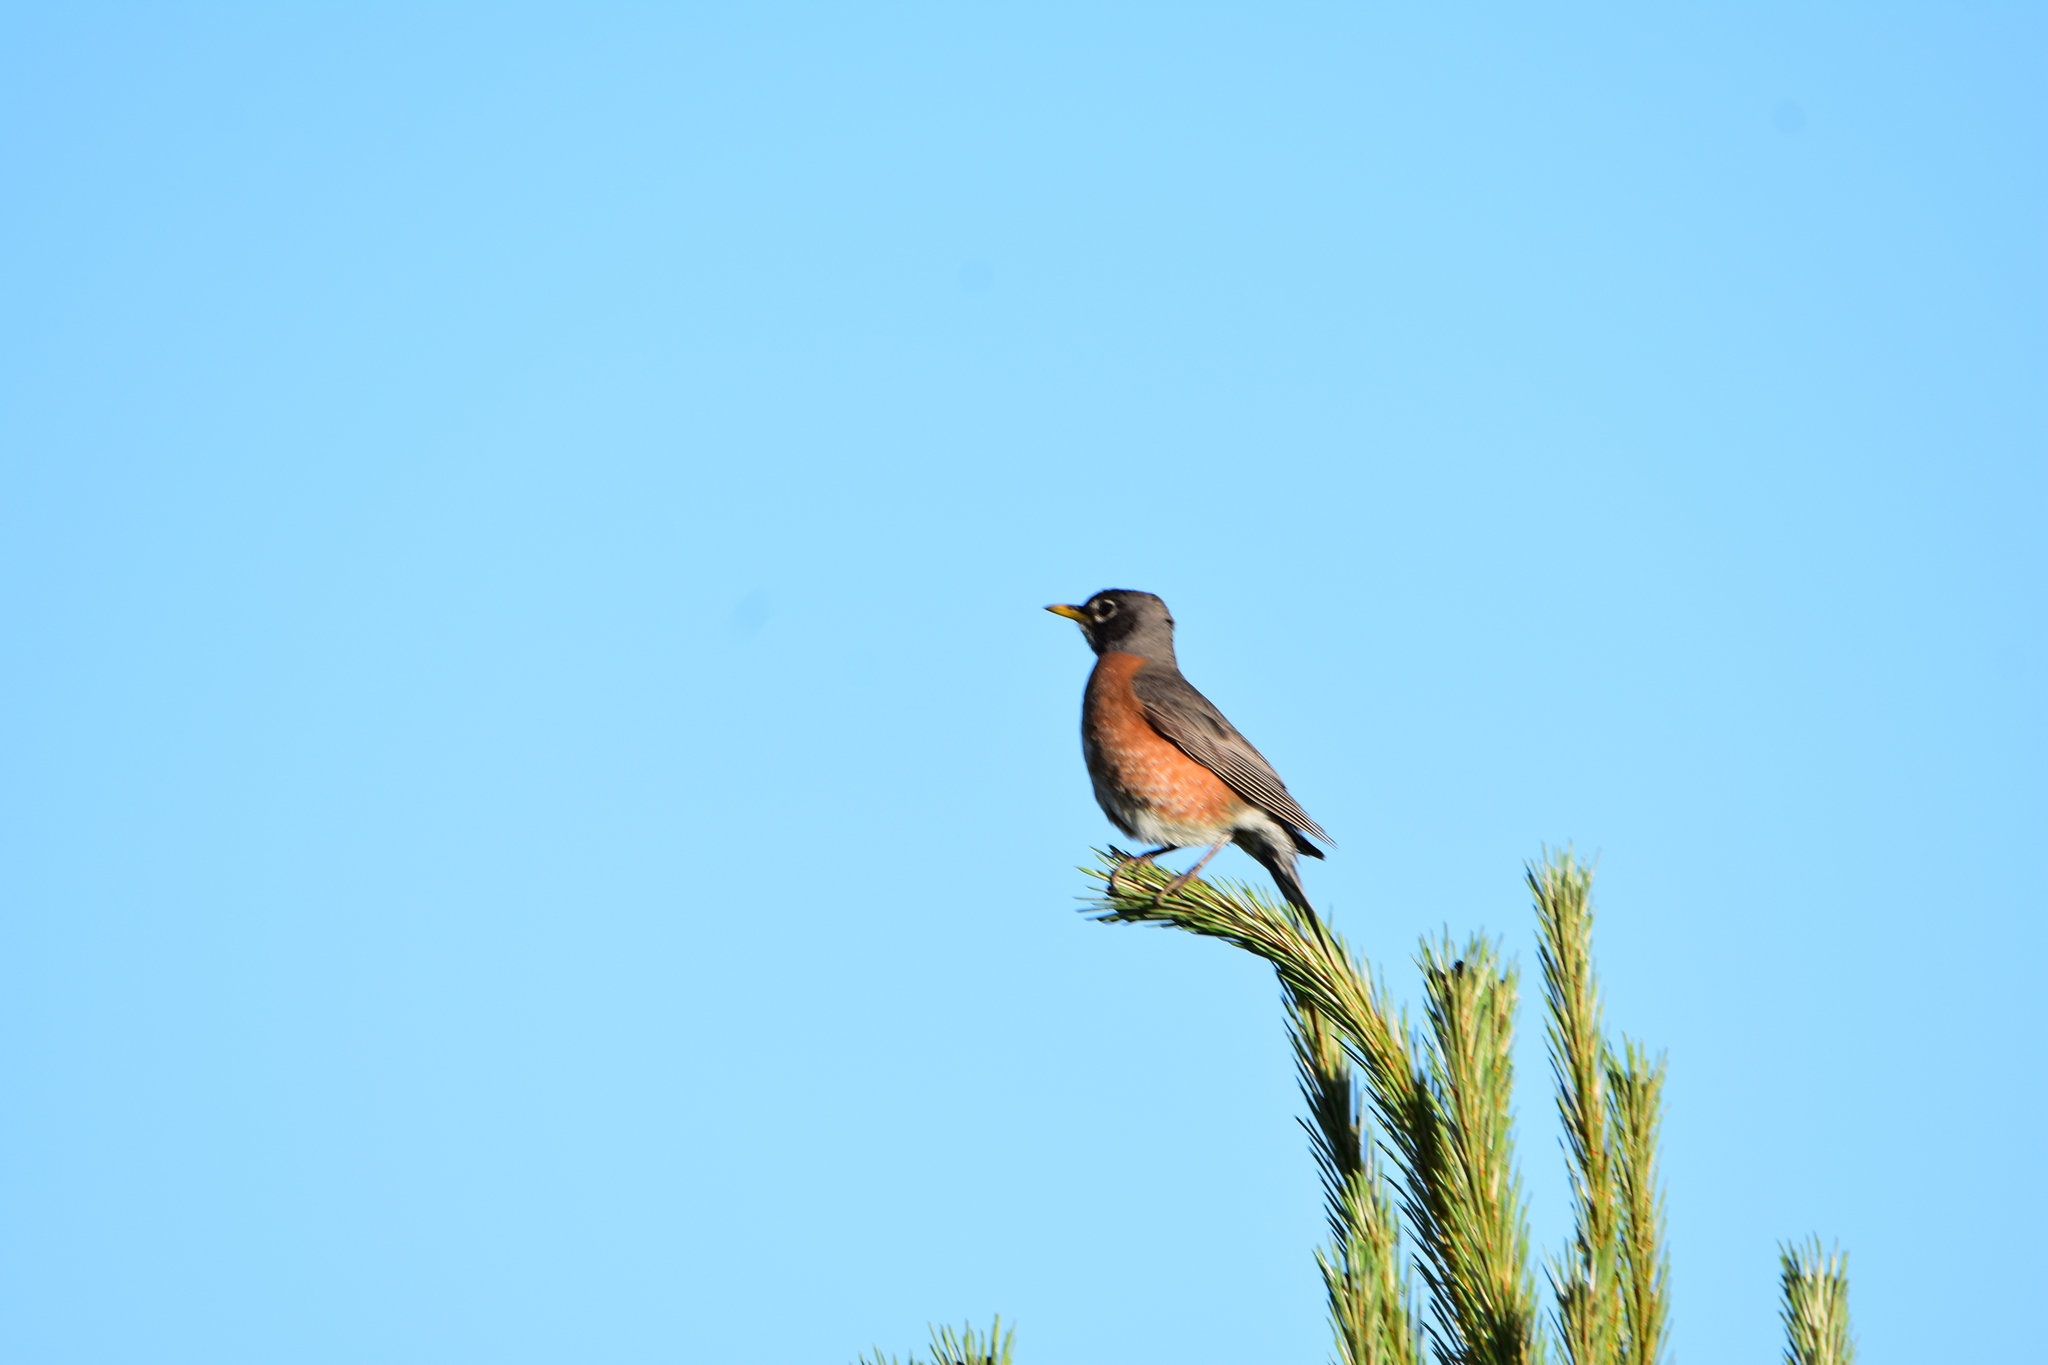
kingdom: Animalia
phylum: Chordata
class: Aves
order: Passeriformes
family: Turdidae
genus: Turdus
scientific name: Turdus migratorius
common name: American robin
